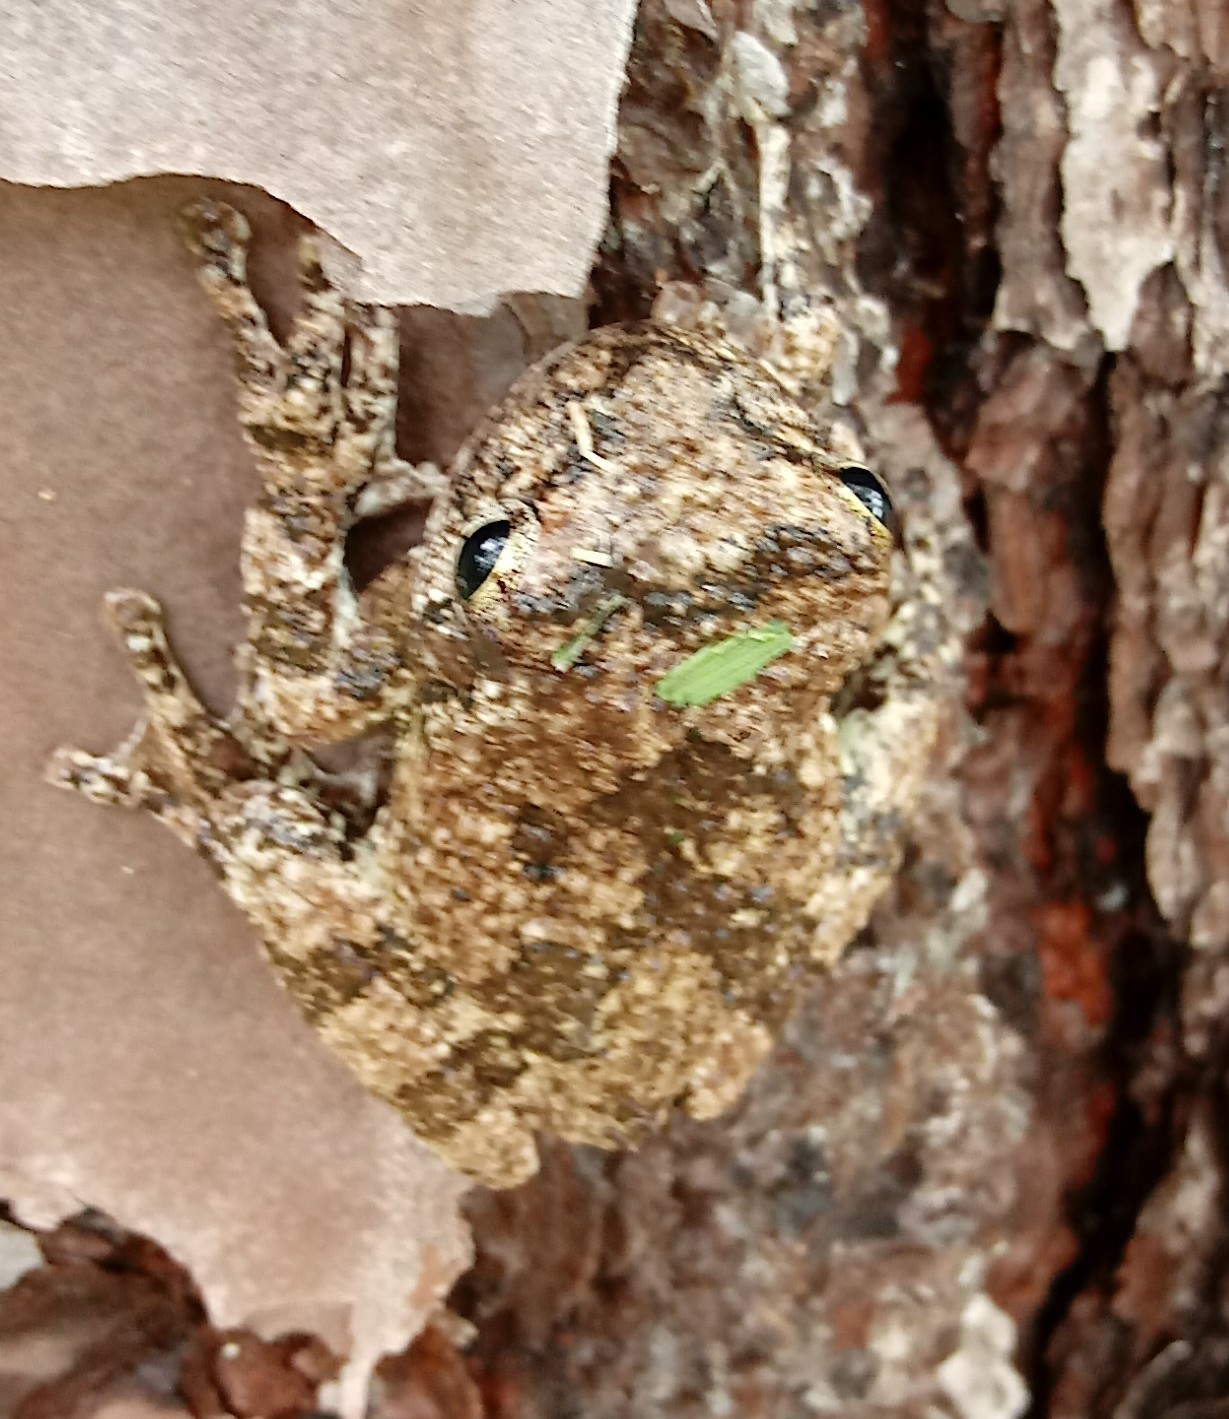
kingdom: Animalia
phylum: Chordata
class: Amphibia
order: Anura
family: Hylidae
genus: Dryophytes
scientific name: Dryophytes chrysoscelis
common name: Cope's gray treefrog
